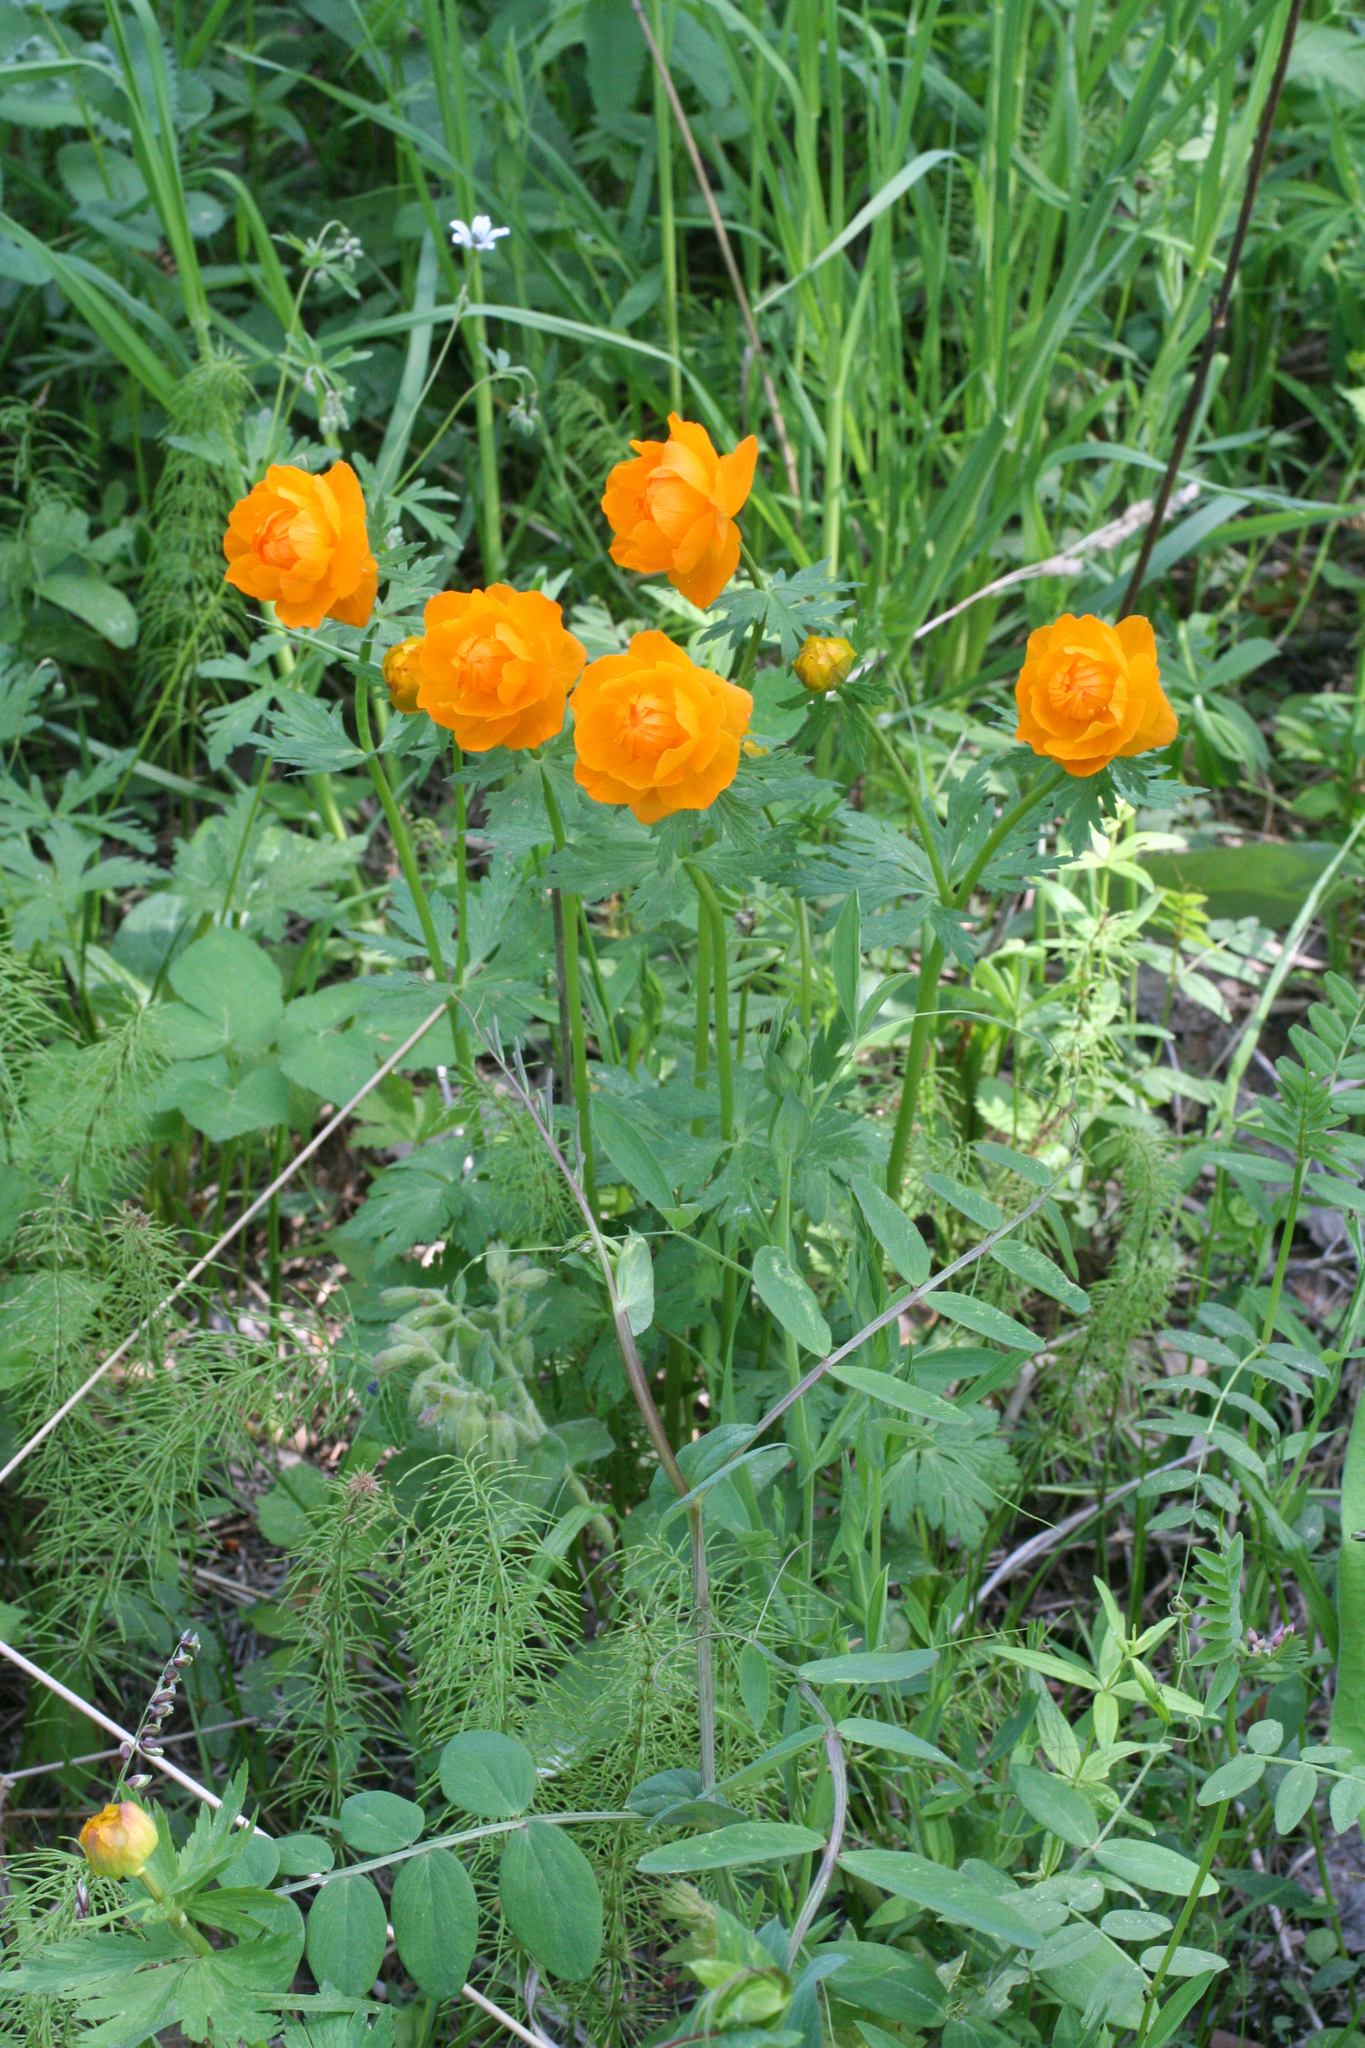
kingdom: Plantae
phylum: Tracheophyta
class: Magnoliopsida
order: Ranunculales
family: Ranunculaceae
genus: Trollius
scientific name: Trollius asiaticus
